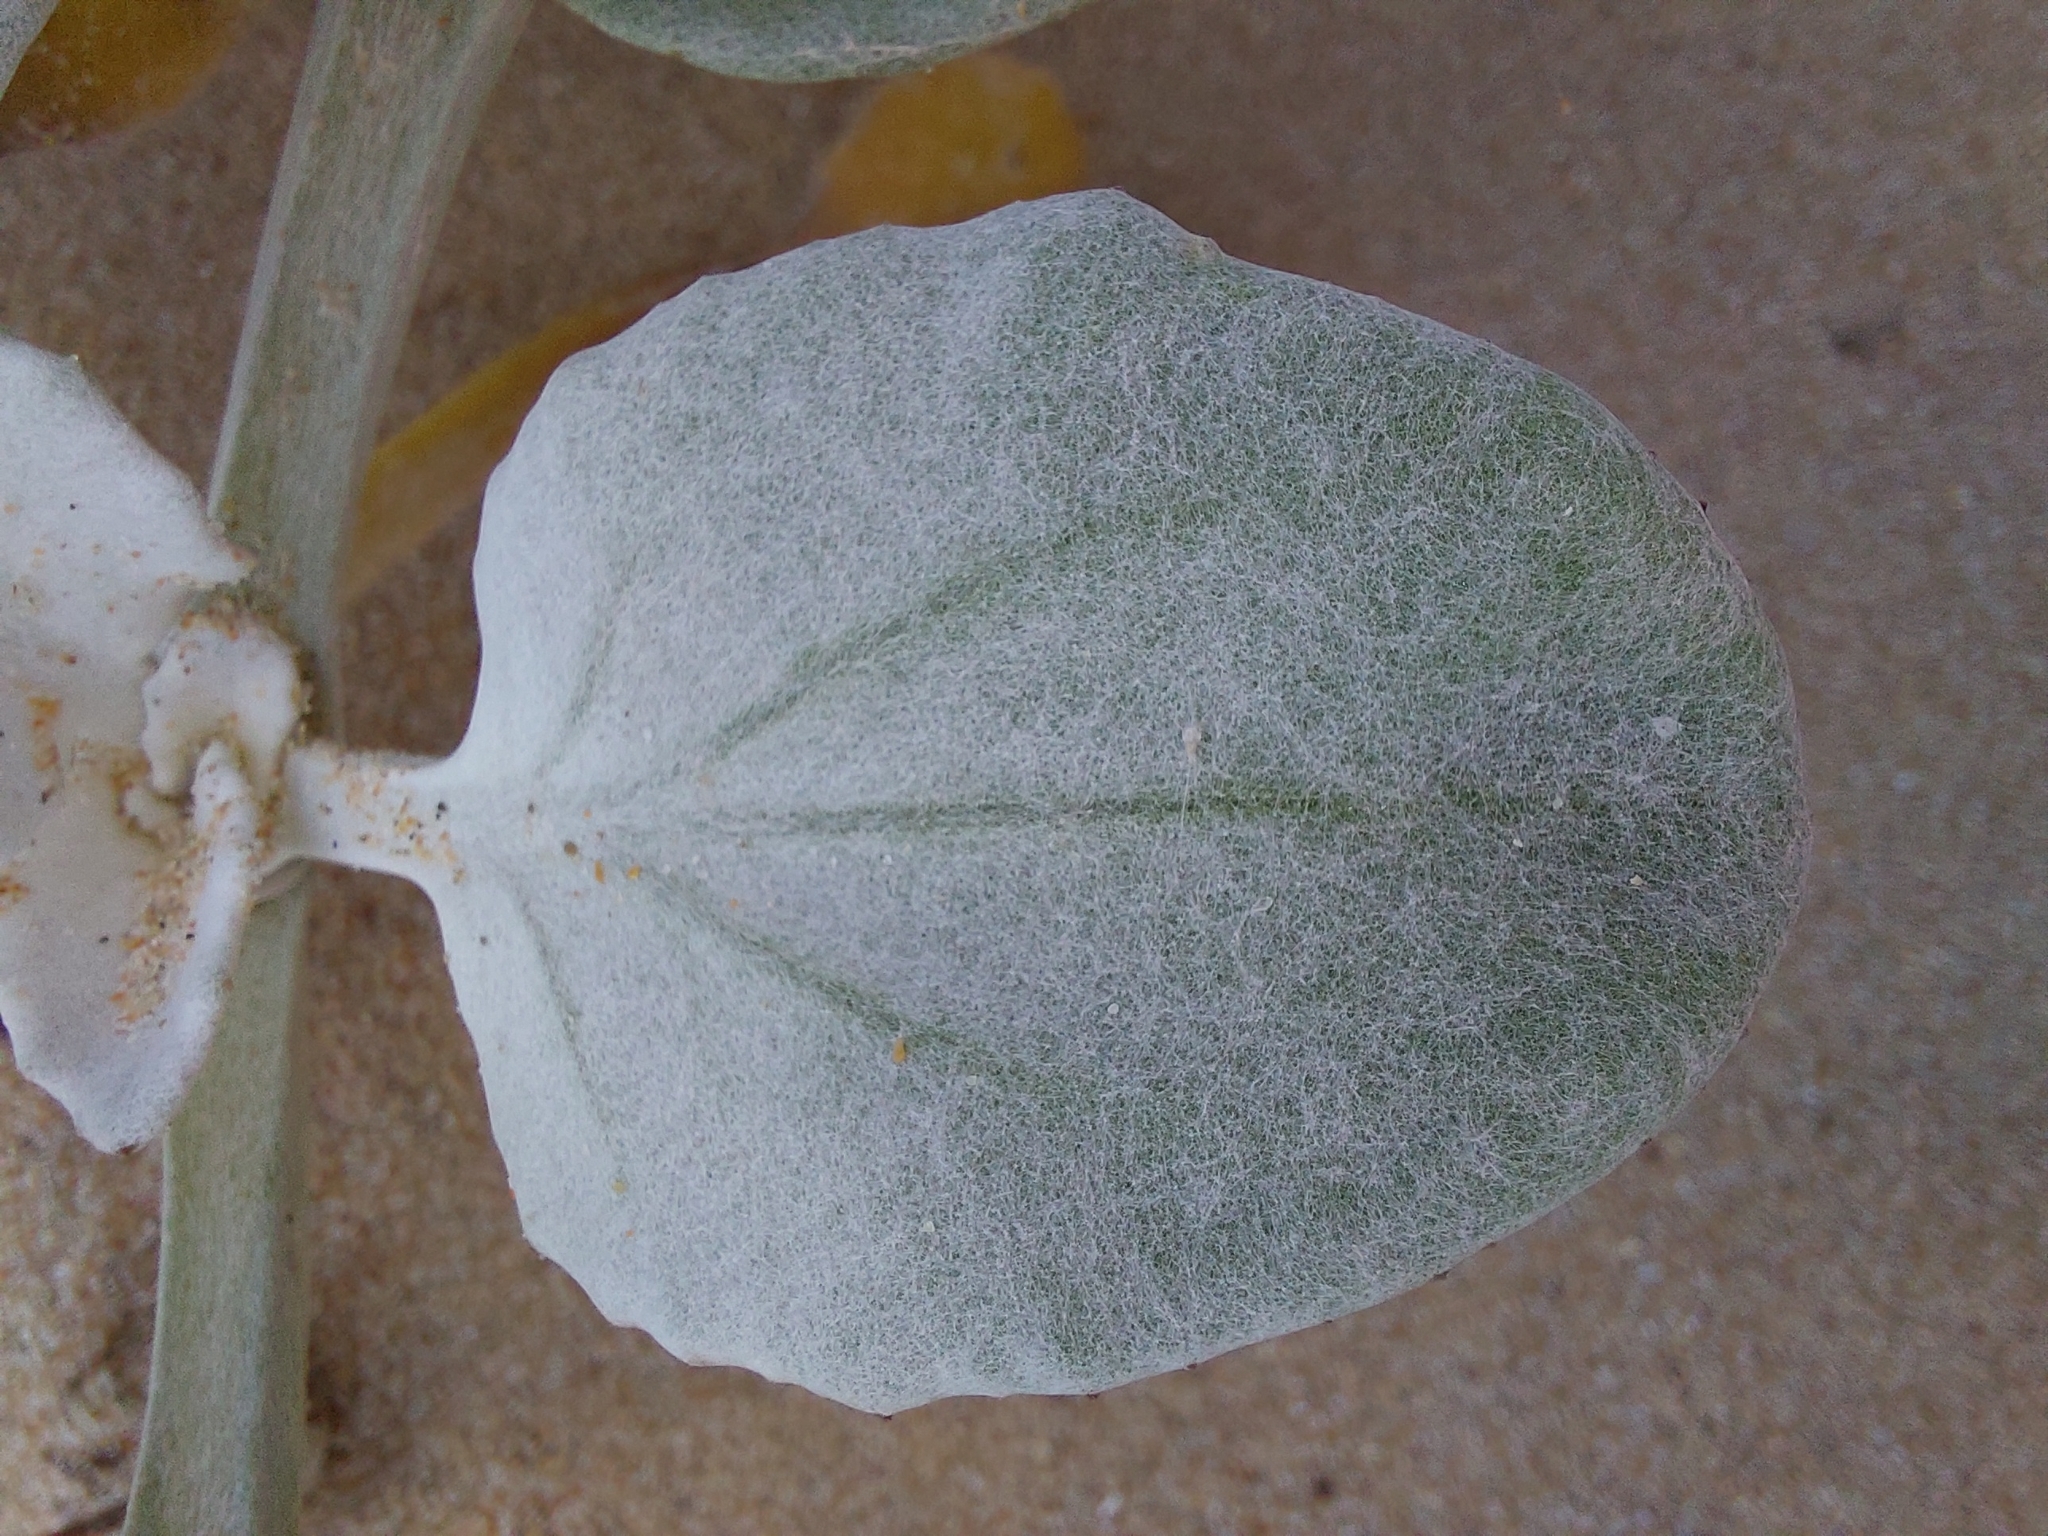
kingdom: Plantae
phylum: Tracheophyta
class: Magnoliopsida
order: Asterales
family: Asteraceae
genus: Arctotheca
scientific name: Arctotheca populifolia
